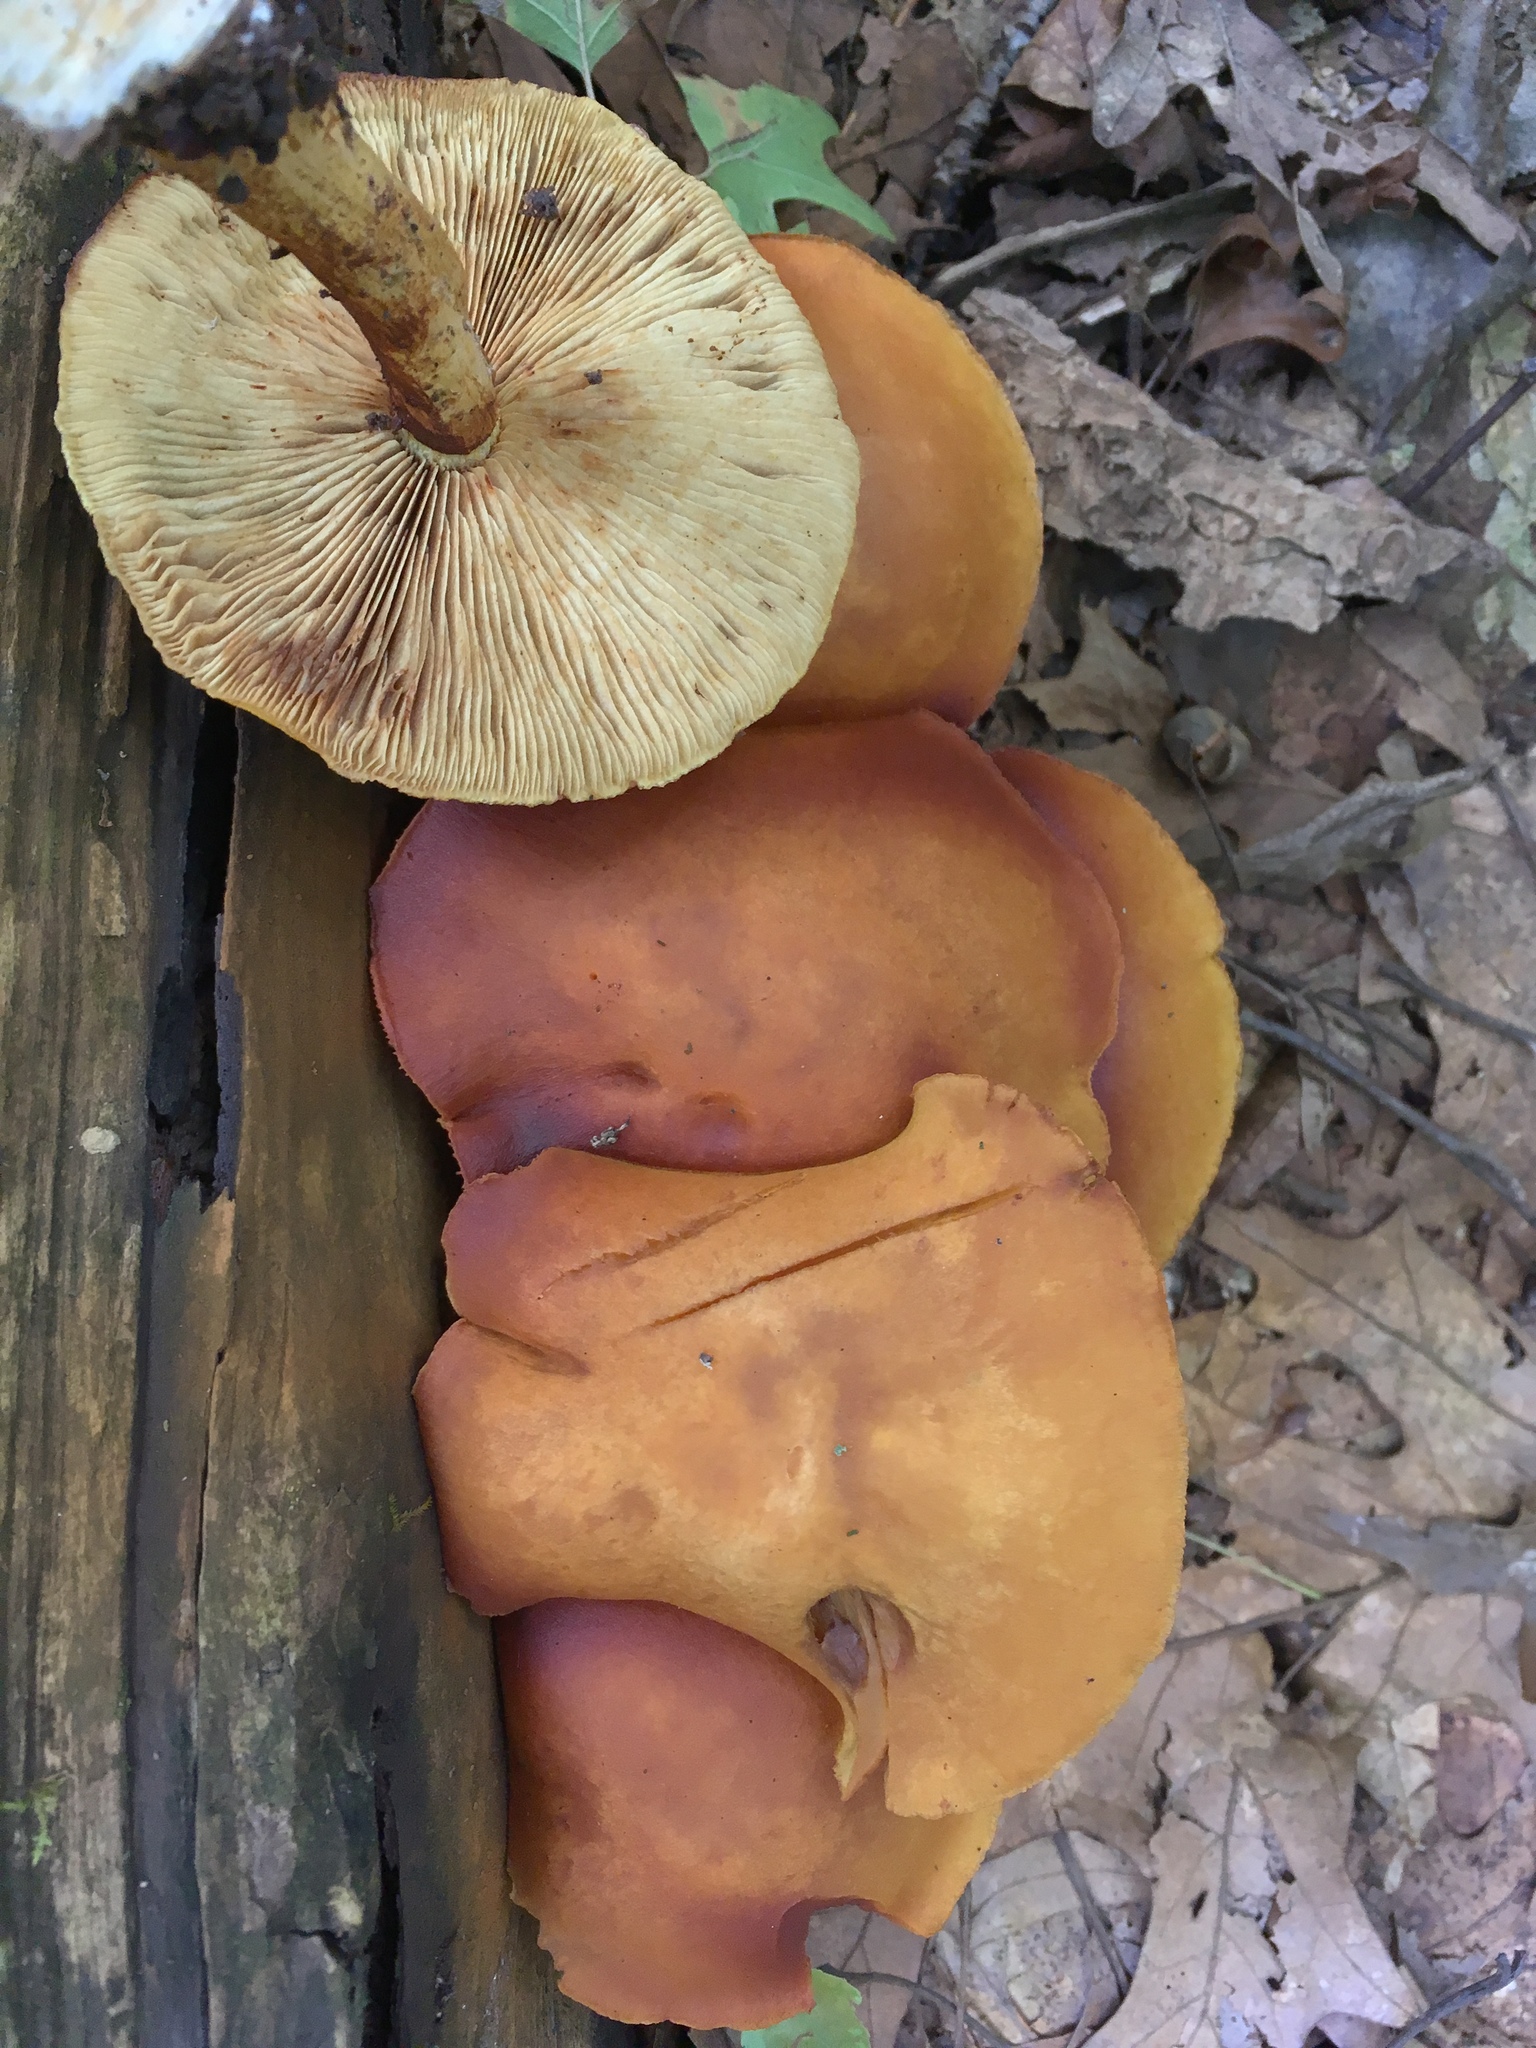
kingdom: Fungi
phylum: Basidiomycota
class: Agaricomycetes
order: Agaricales
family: Hymenogastraceae
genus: Gymnopilus
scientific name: Gymnopilus sapineus
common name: Scaly rustgill
